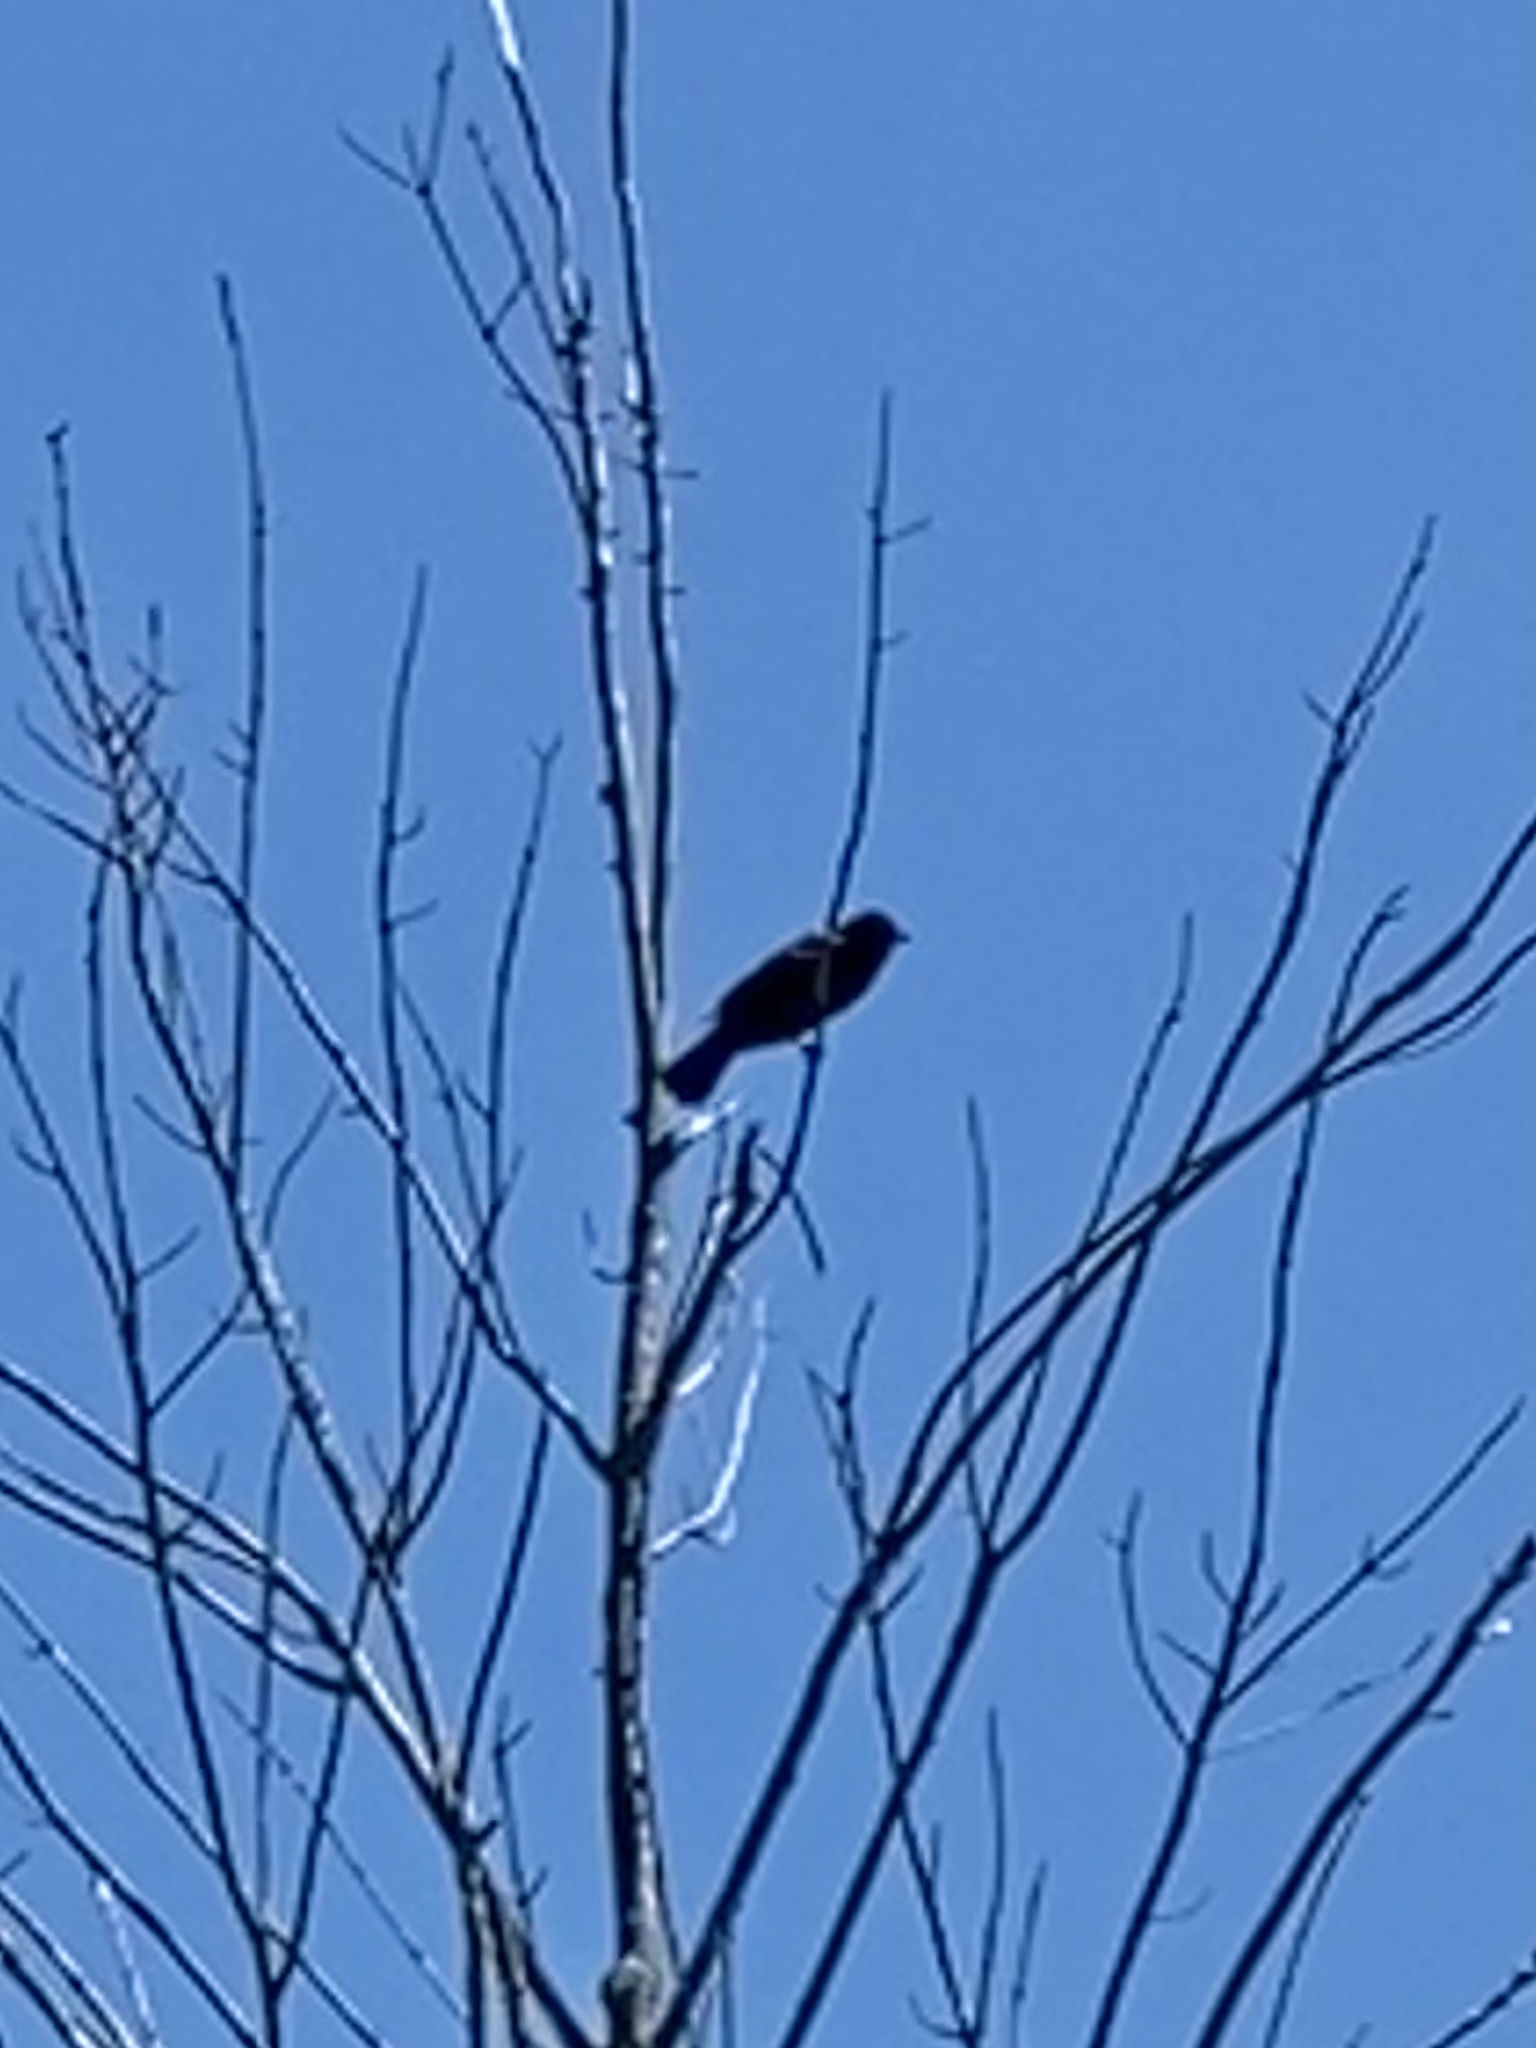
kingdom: Animalia
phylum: Chordata
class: Aves
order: Passeriformes
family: Icteridae
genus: Agelaius
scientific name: Agelaius phoeniceus
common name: Red-winged blackbird
